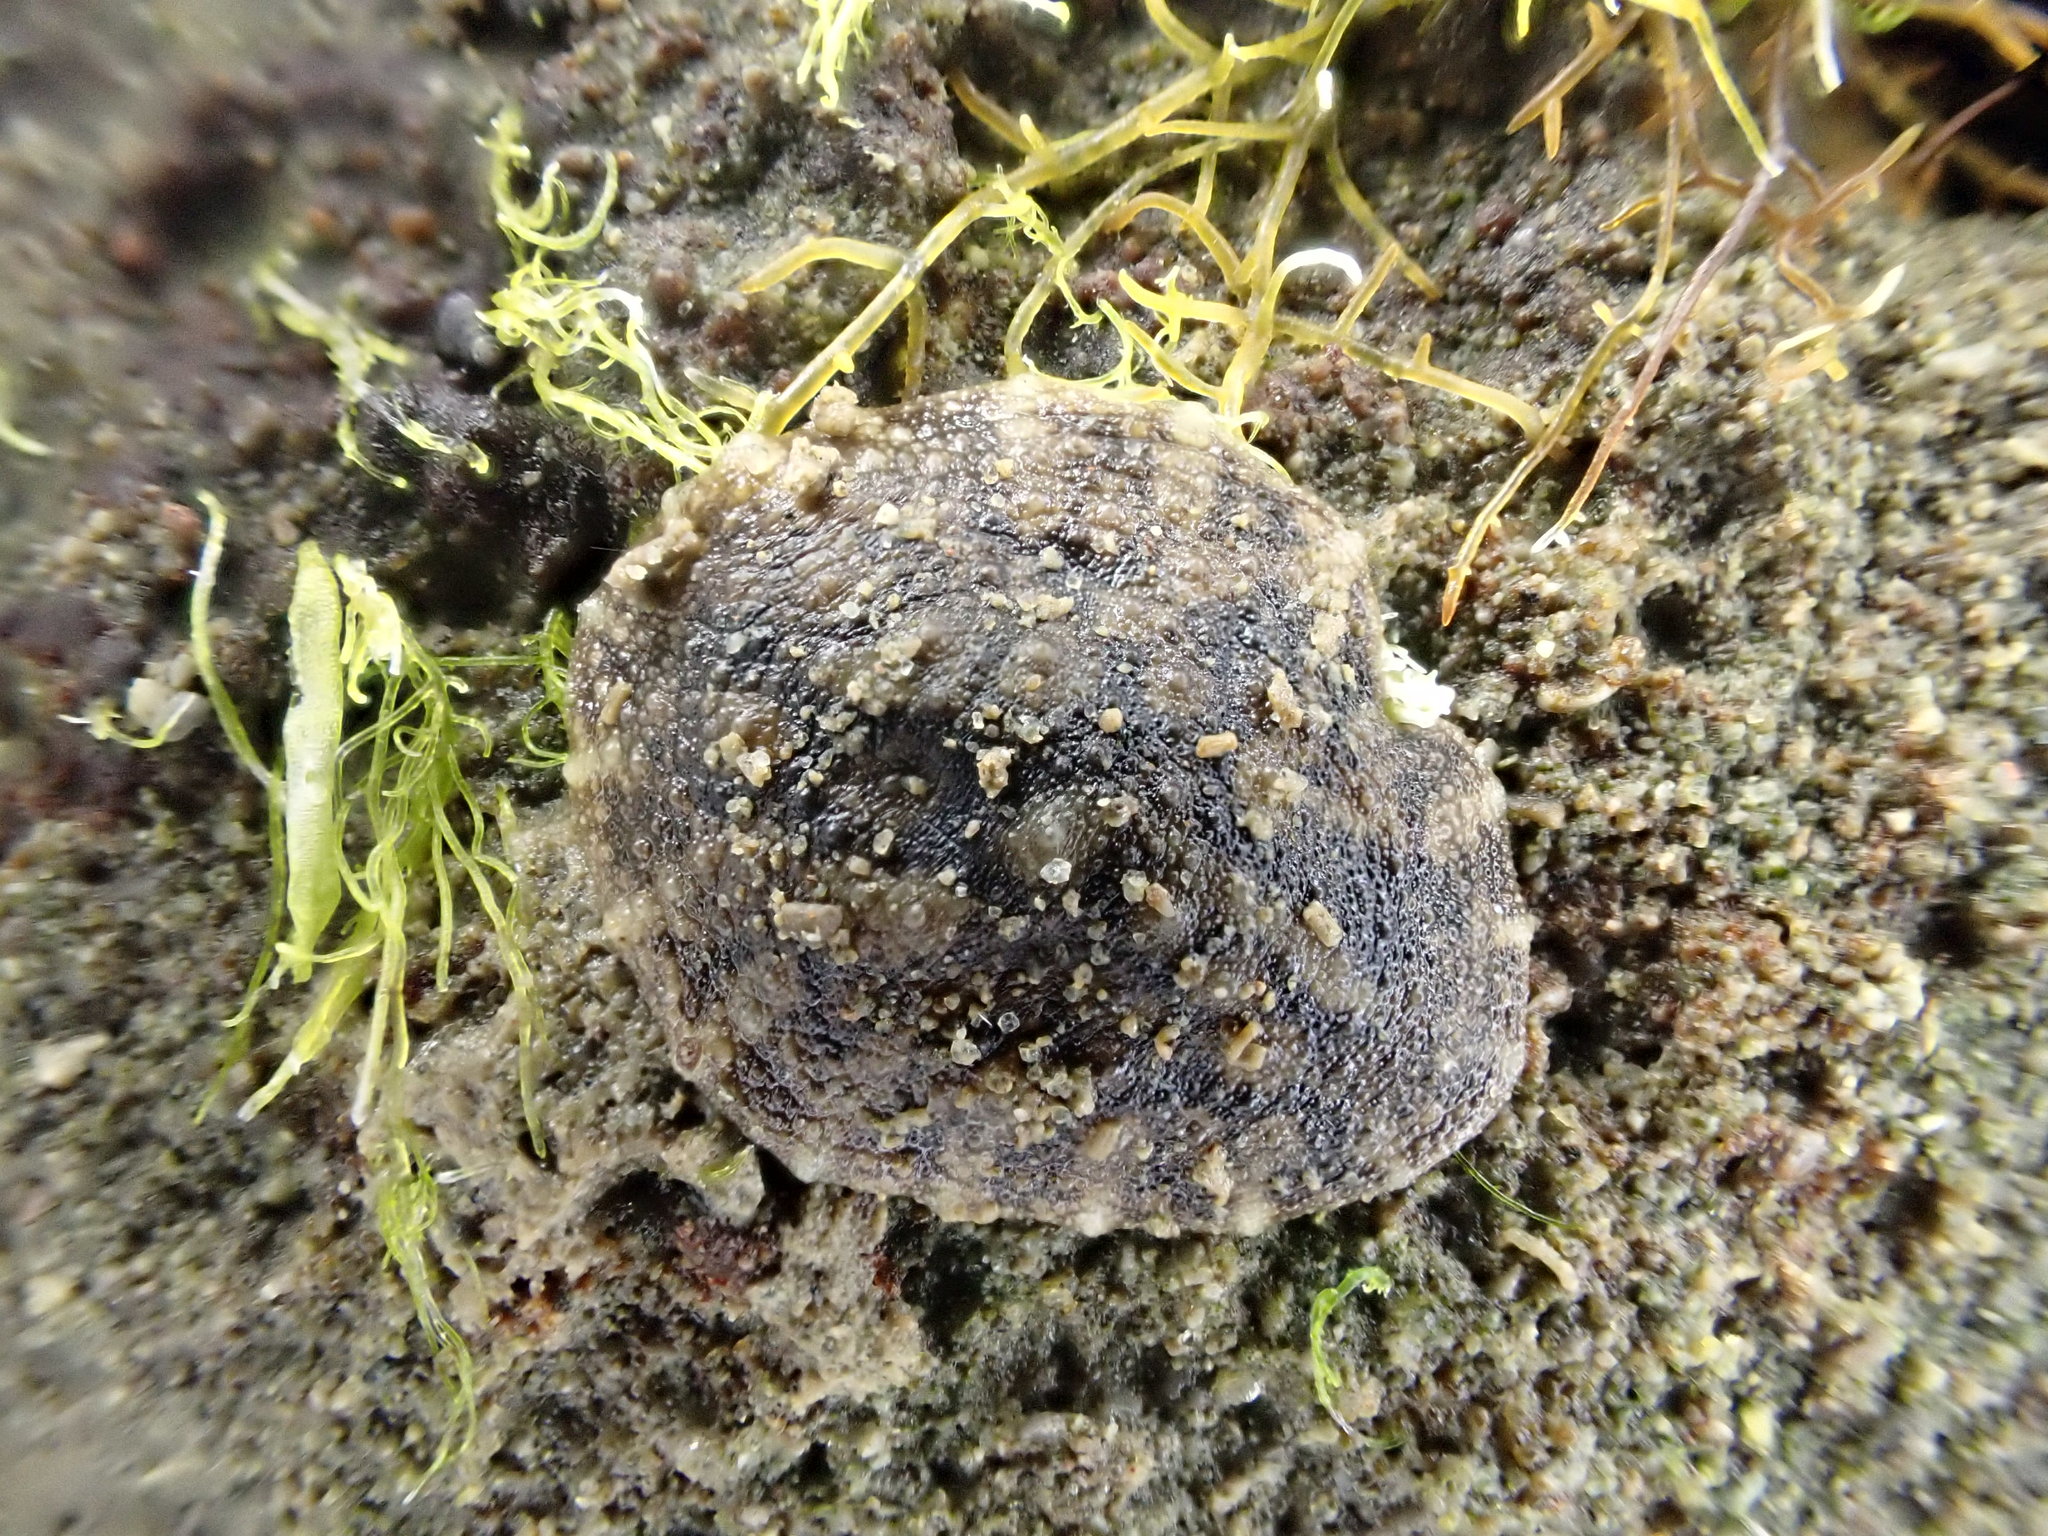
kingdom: Animalia
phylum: Mollusca
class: Gastropoda
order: Systellommatophora
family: Onchidiidae
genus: Onchidella
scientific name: Onchidella nigricans
